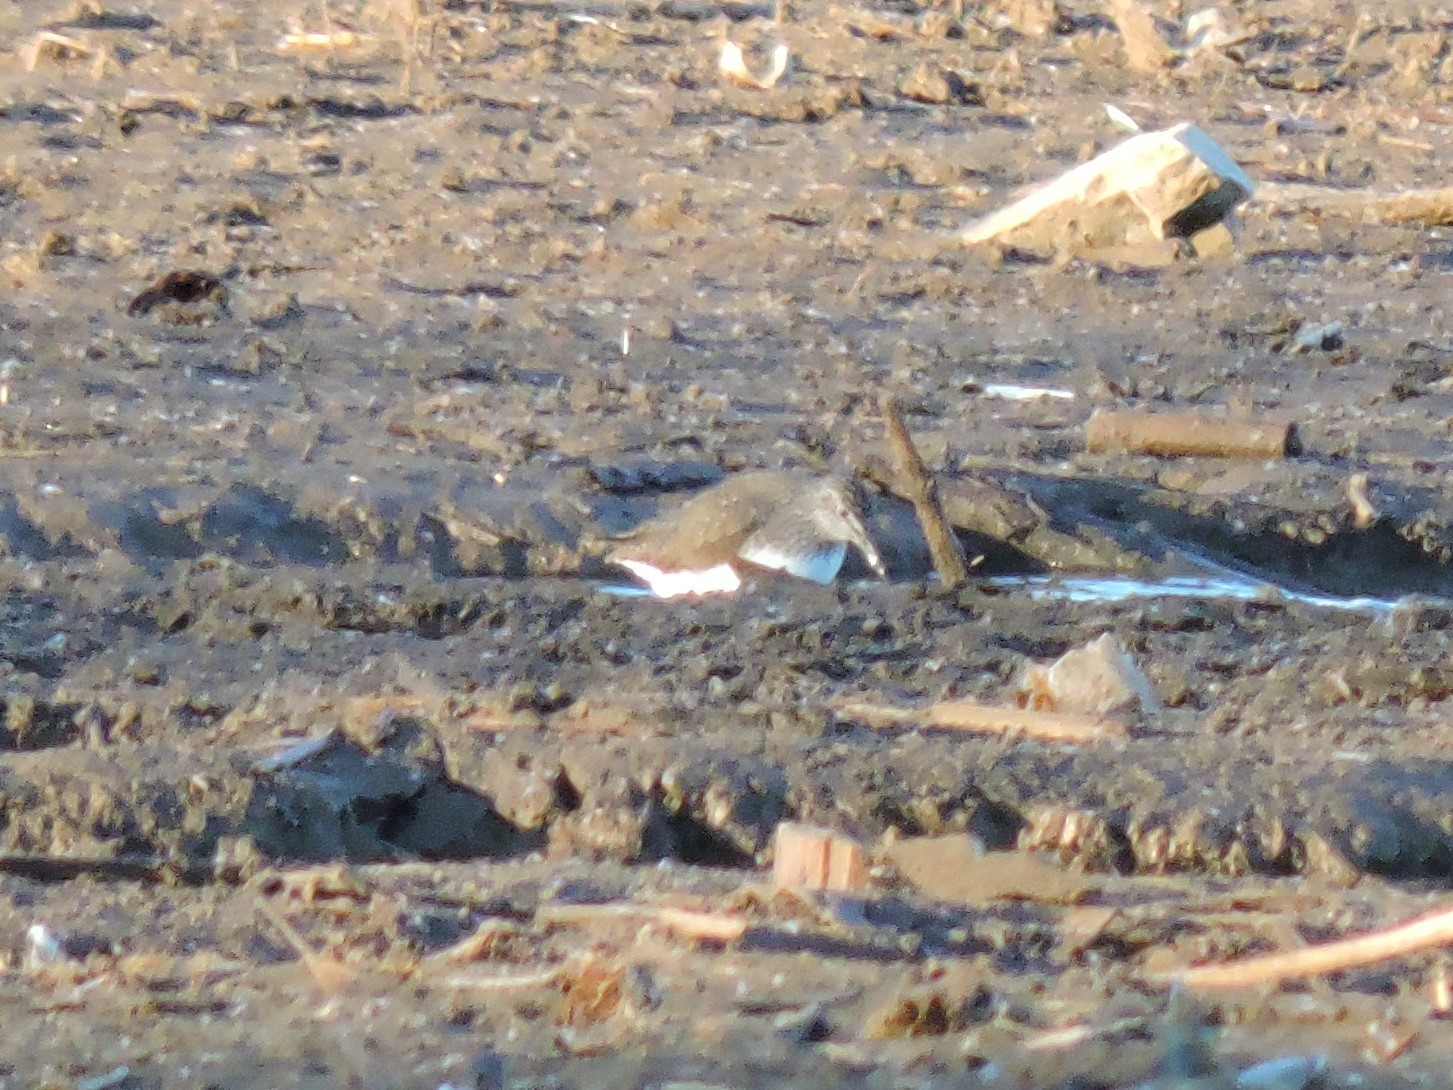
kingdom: Animalia
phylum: Chordata
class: Aves
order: Charadriiformes
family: Scolopacidae
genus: Tringa
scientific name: Tringa ochropus
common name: Green sandpiper
